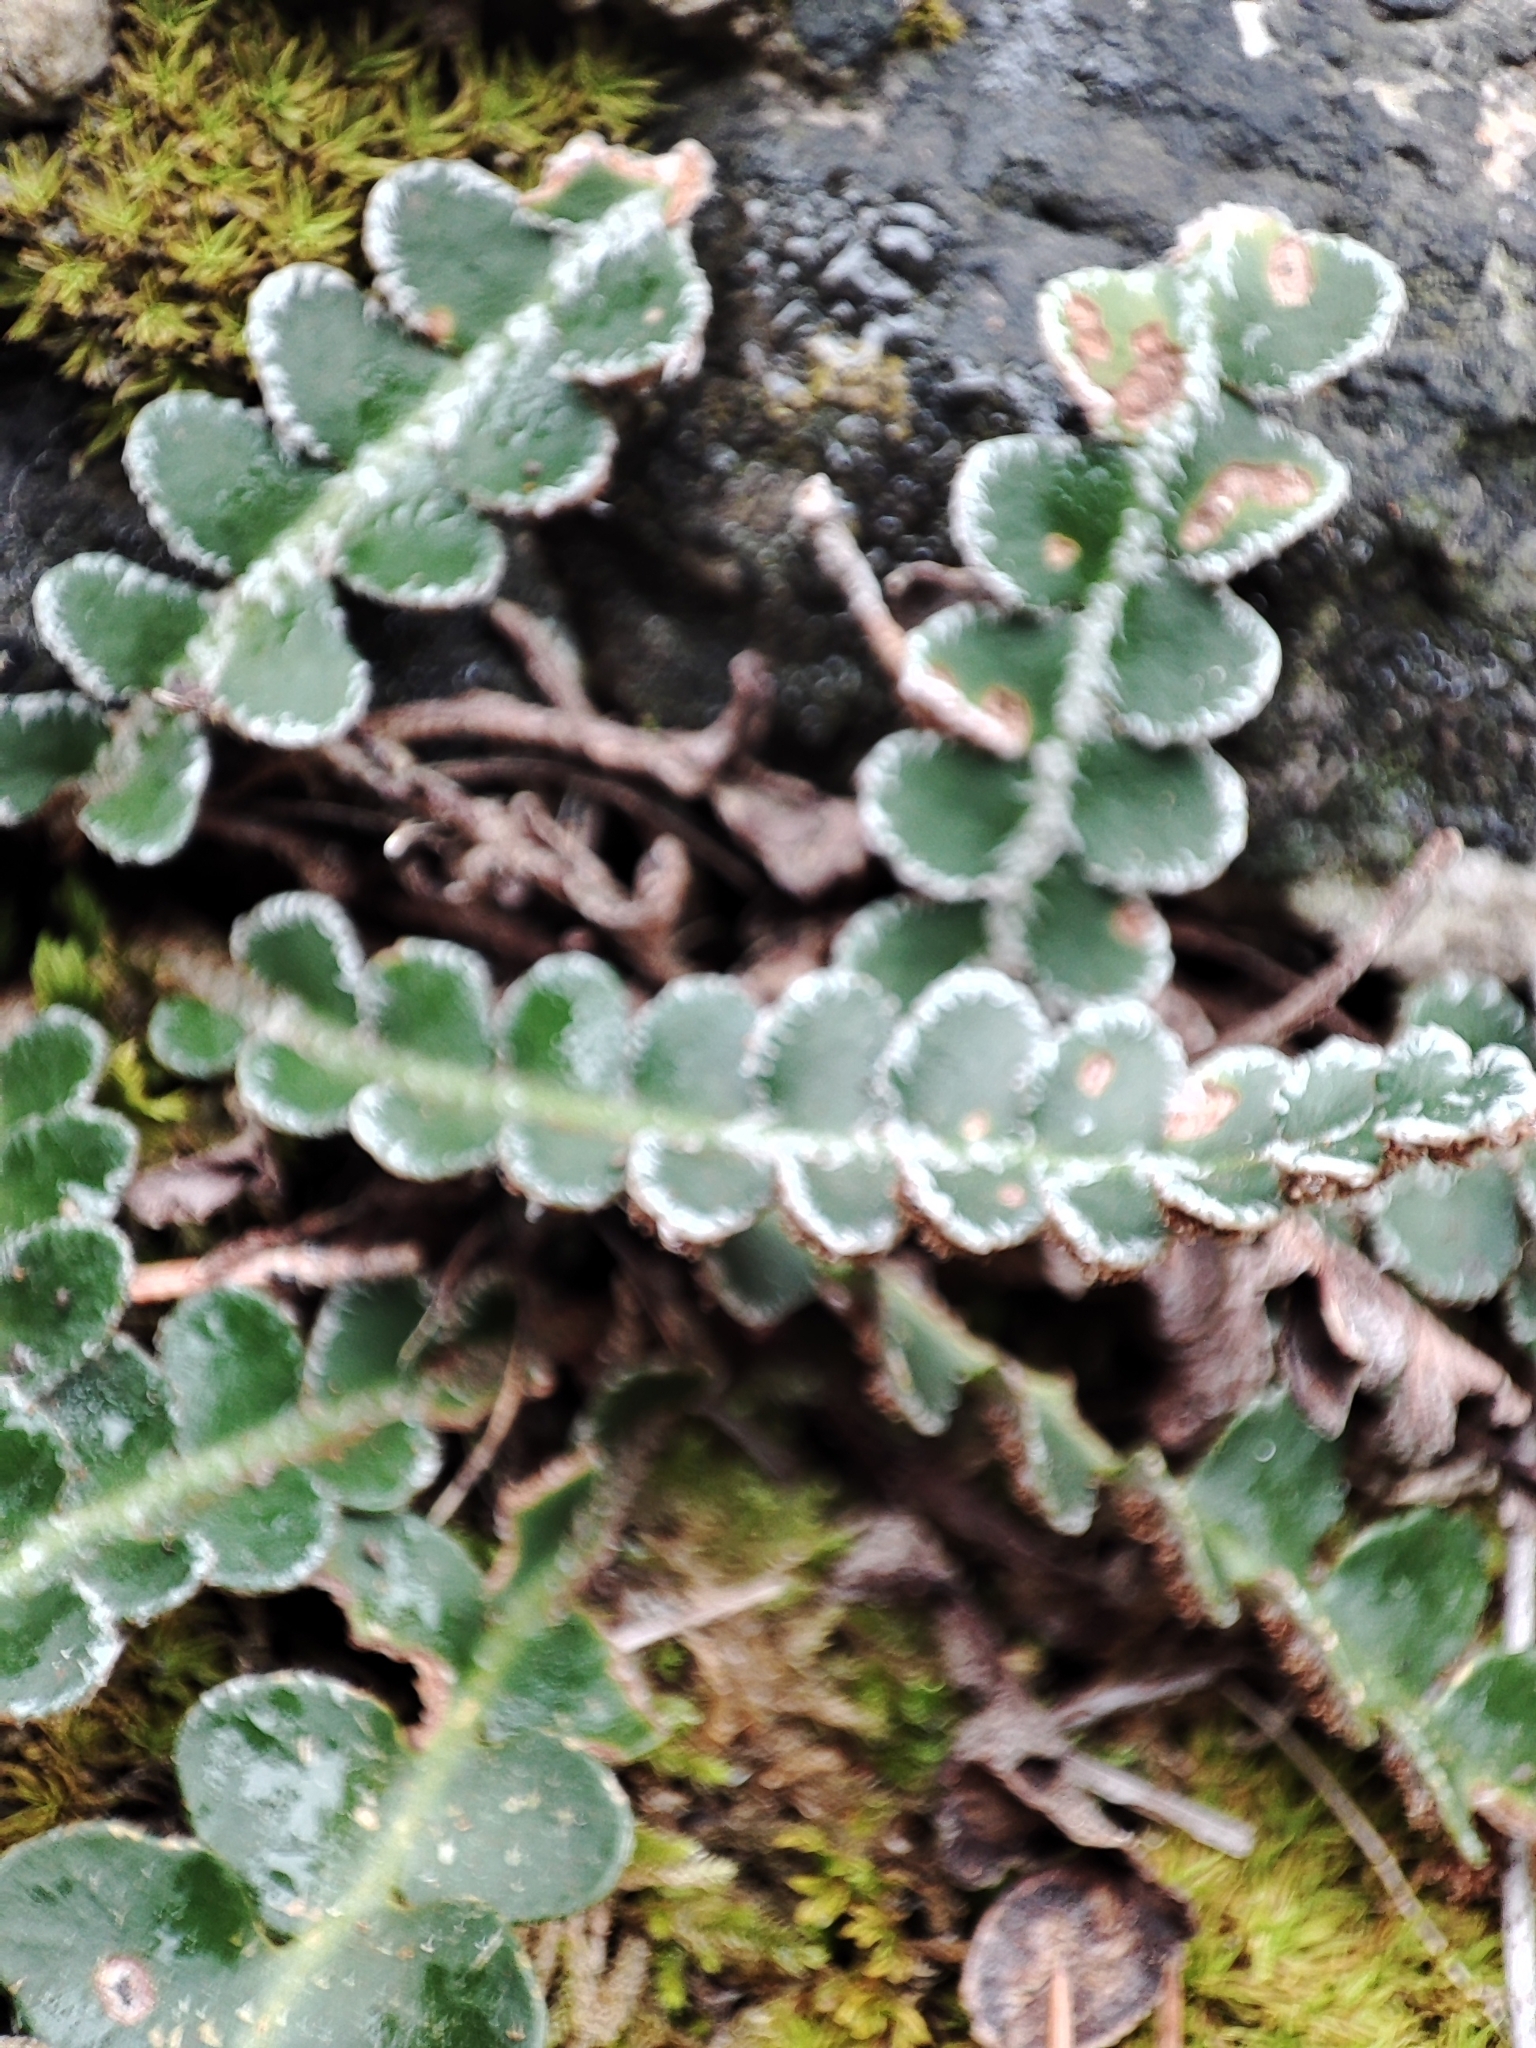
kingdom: Plantae
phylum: Tracheophyta
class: Polypodiopsida
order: Polypodiales
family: Aspleniaceae
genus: Asplenium
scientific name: Asplenium ceterach
